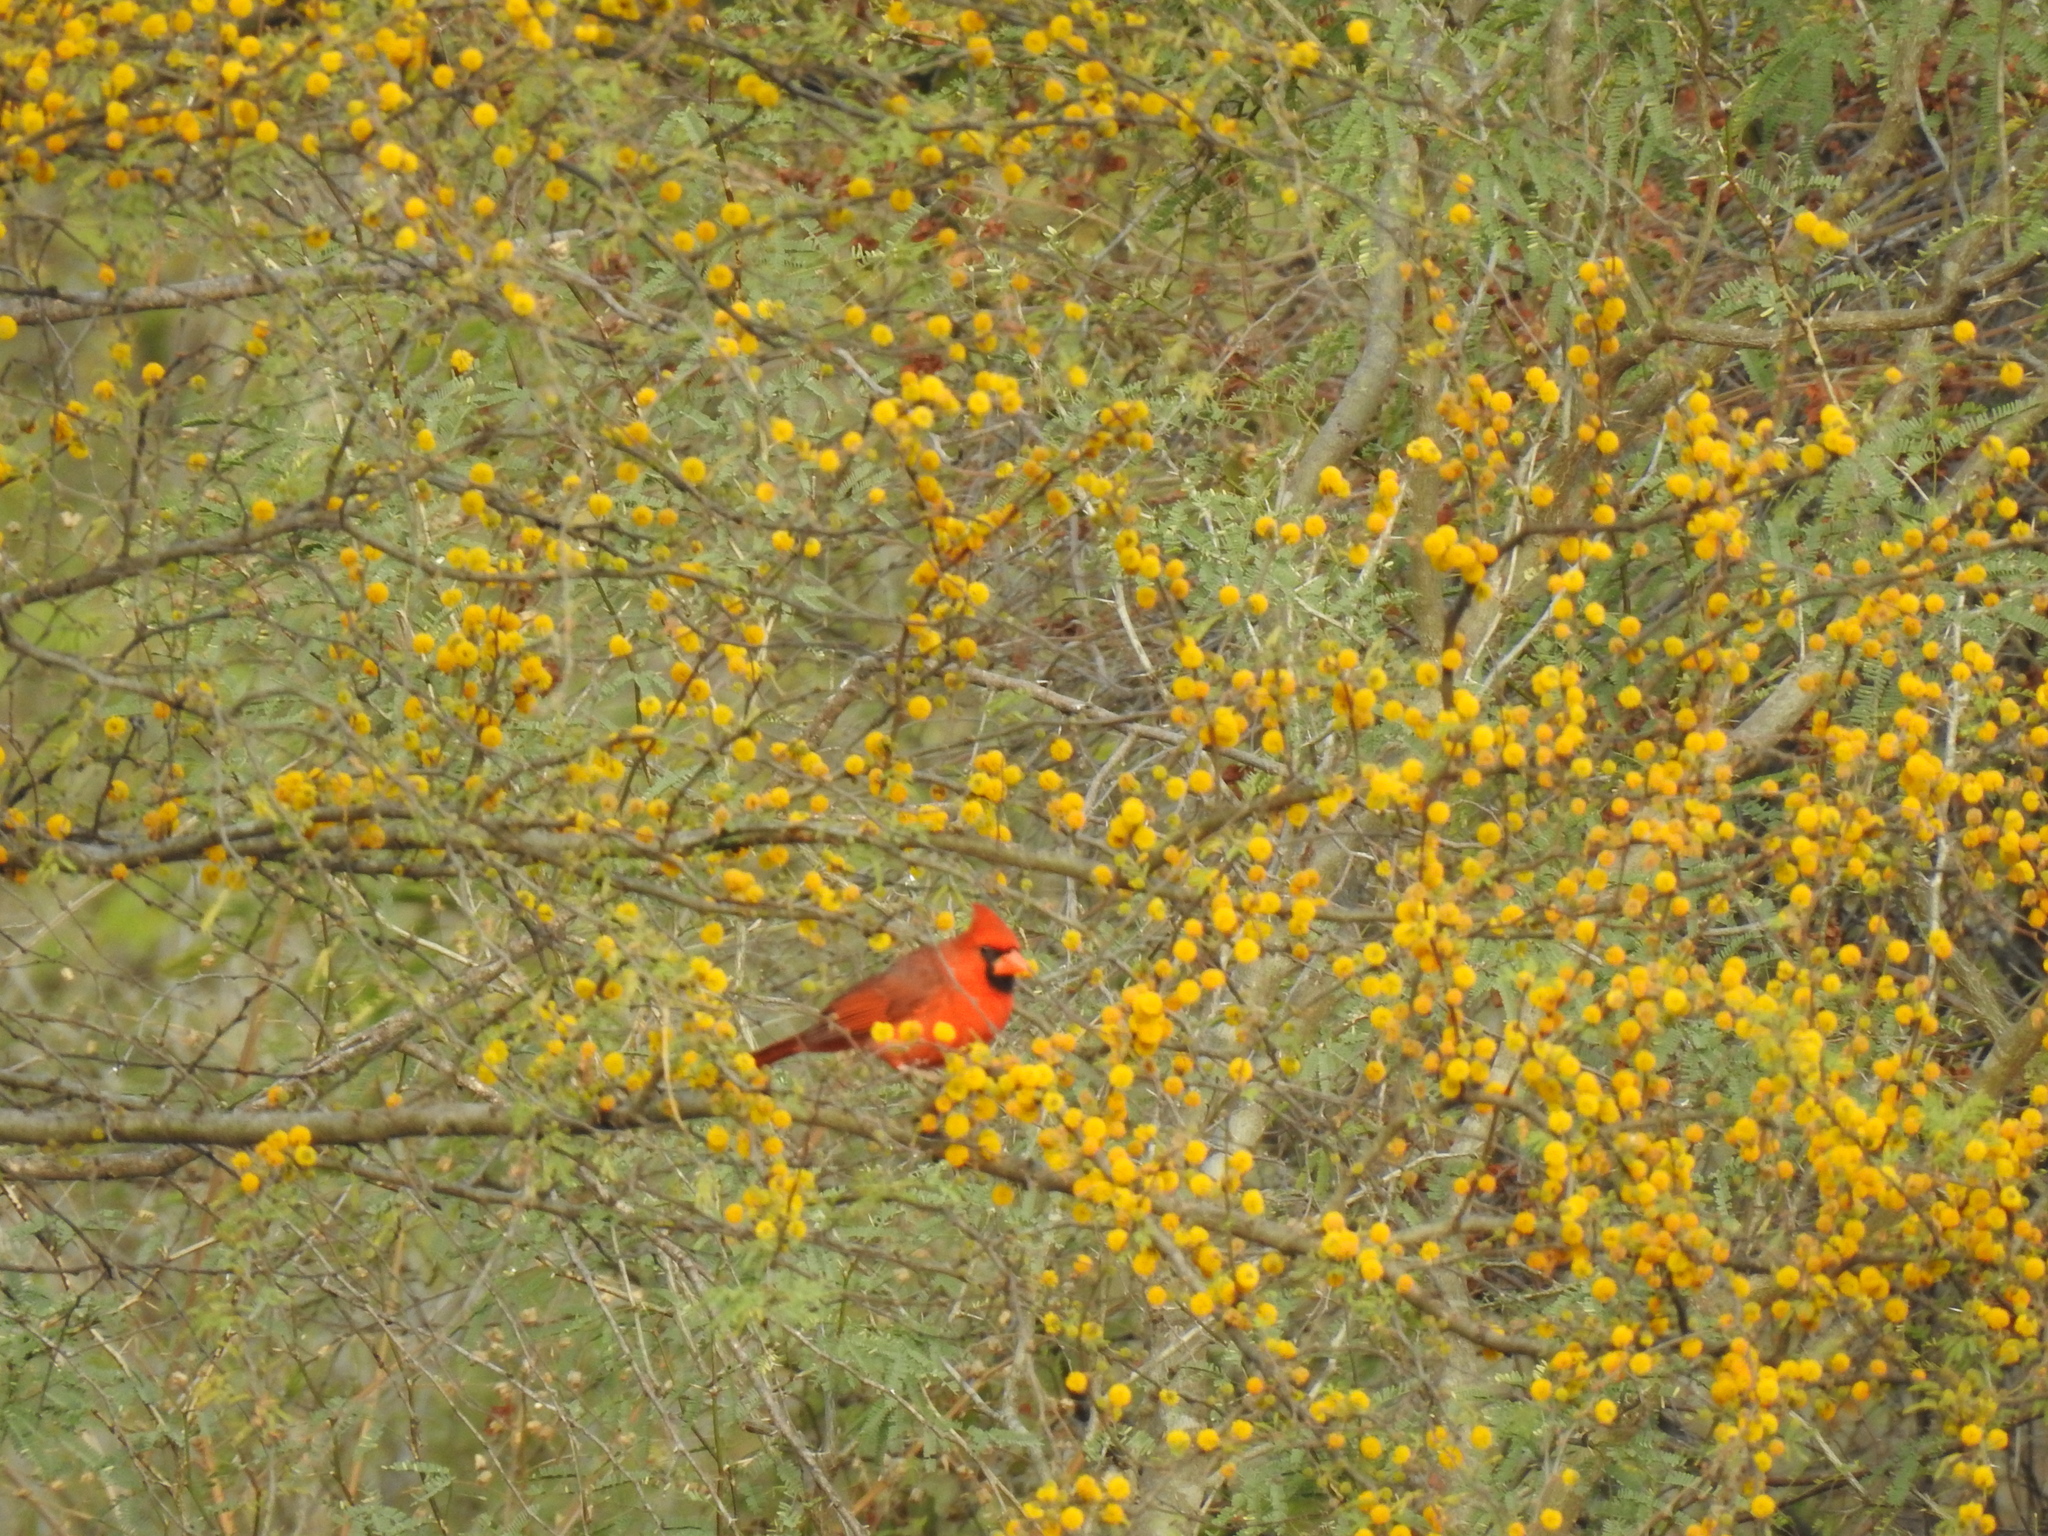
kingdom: Animalia
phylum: Chordata
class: Aves
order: Passeriformes
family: Cardinalidae
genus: Cardinalis
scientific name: Cardinalis cardinalis
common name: Northern cardinal
